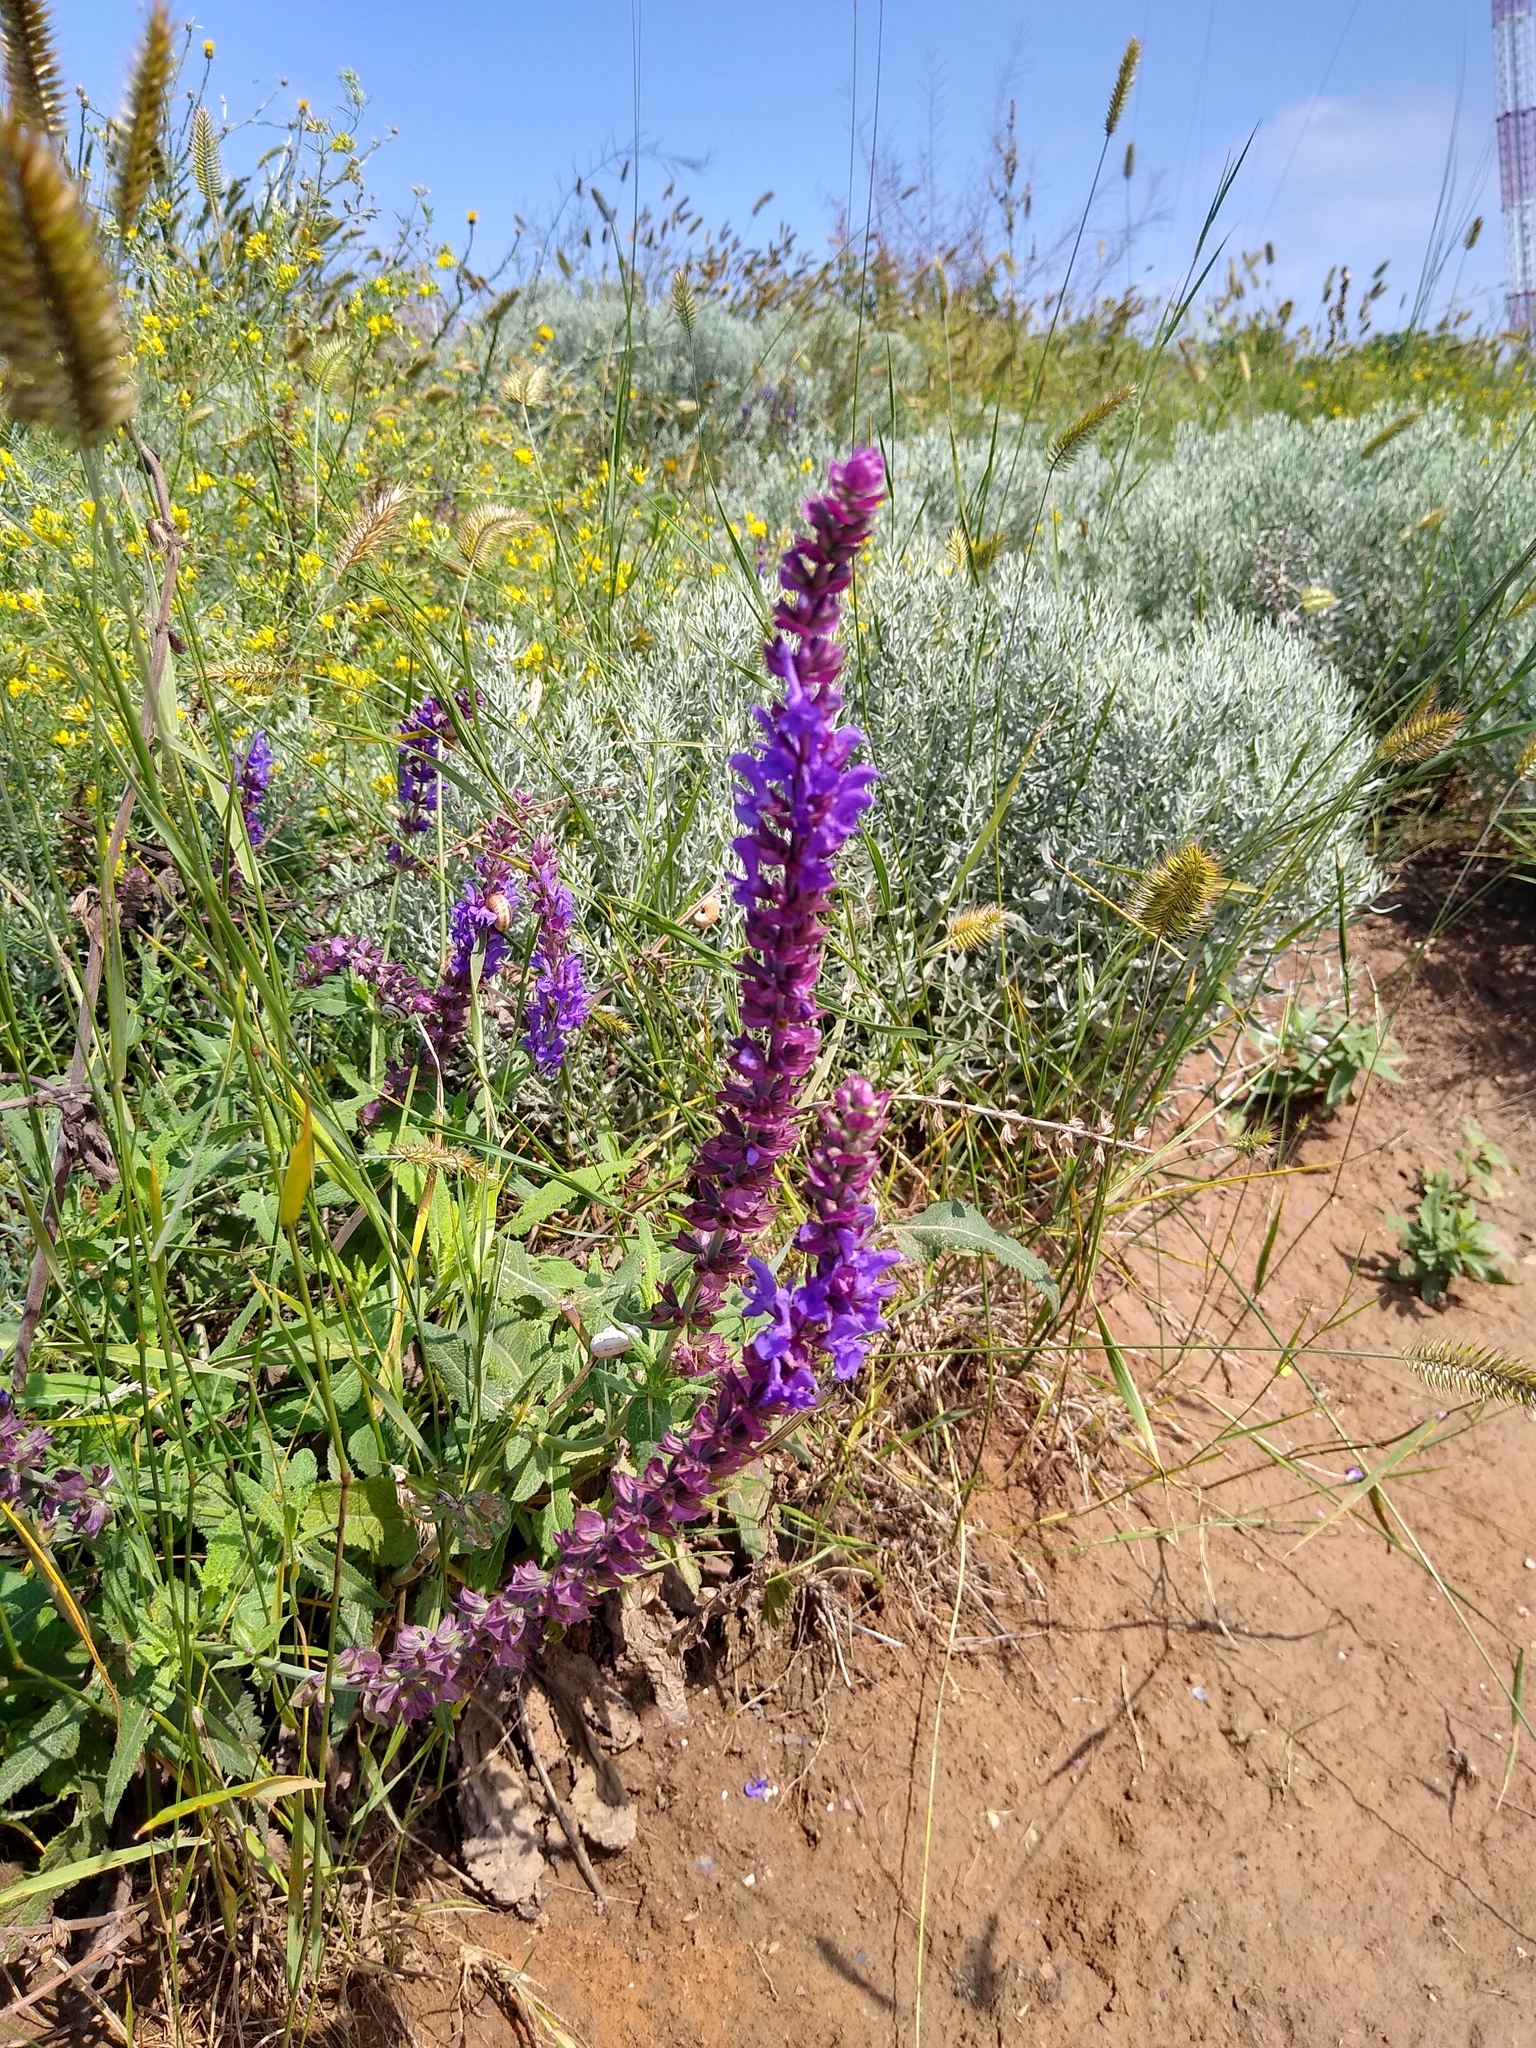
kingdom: Plantae
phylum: Tracheophyta
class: Magnoliopsida
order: Lamiales
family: Lamiaceae
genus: Salvia
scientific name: Salvia nemorosa
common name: Balkan clary
